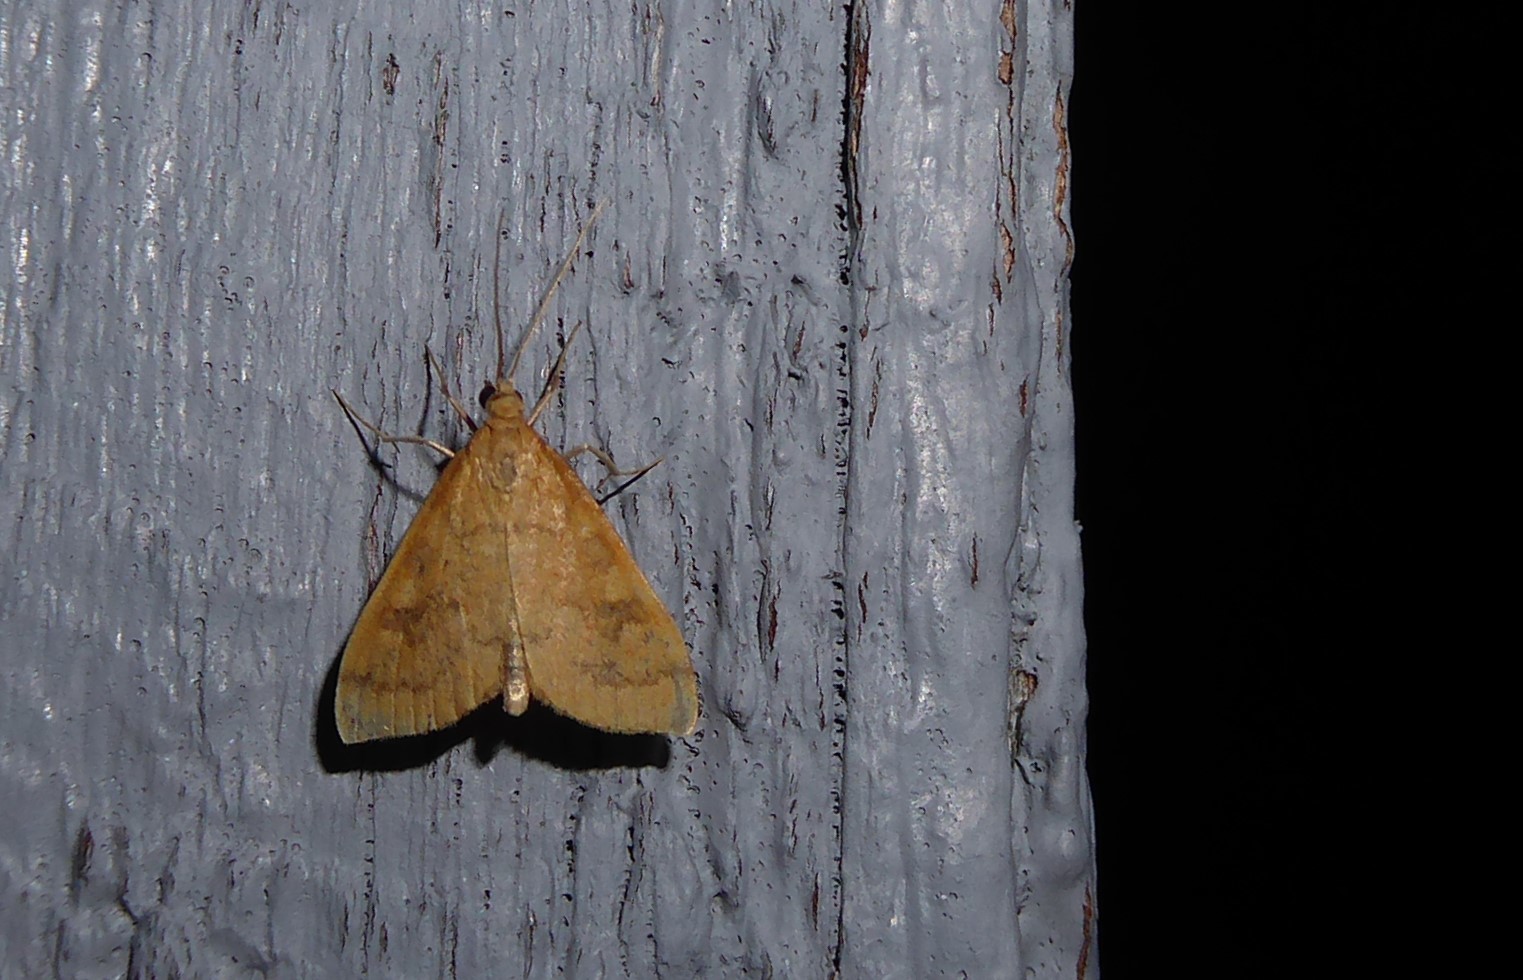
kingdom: Animalia
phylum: Arthropoda
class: Insecta
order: Lepidoptera
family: Crambidae
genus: Udea
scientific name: Udea Mnesictena flavidalis
